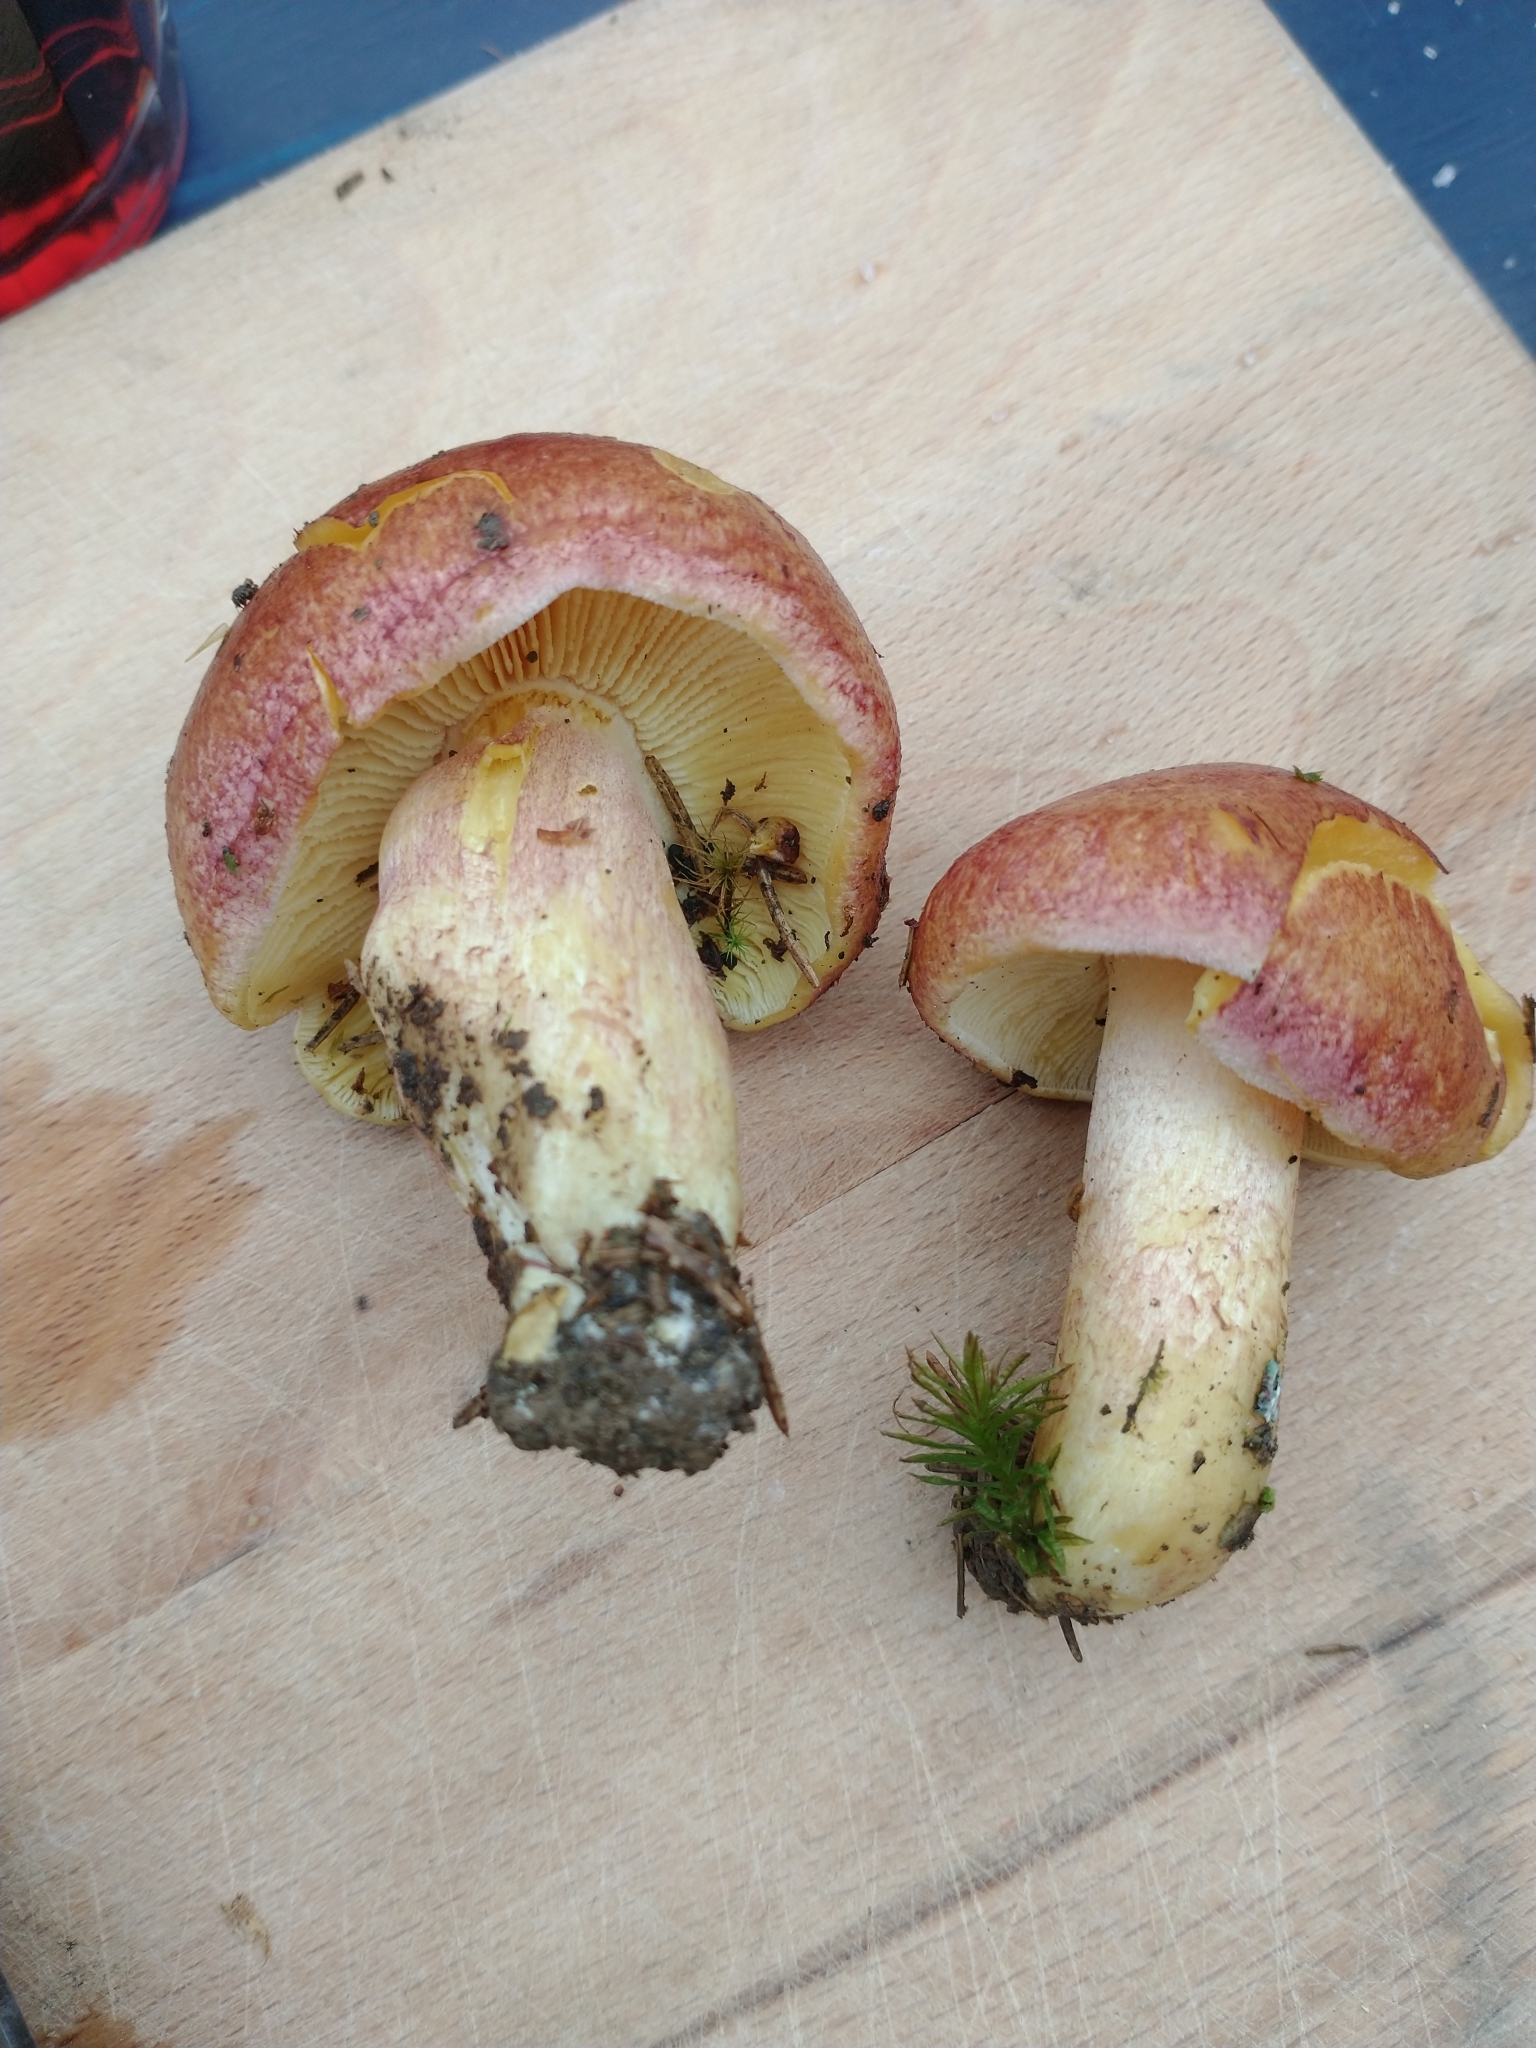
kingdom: Fungi
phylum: Basidiomycota
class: Agaricomycetes
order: Agaricales
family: Tricholomataceae
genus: Tricholomopsis
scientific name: Tricholomopsis rutilans
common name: Plums and custard
